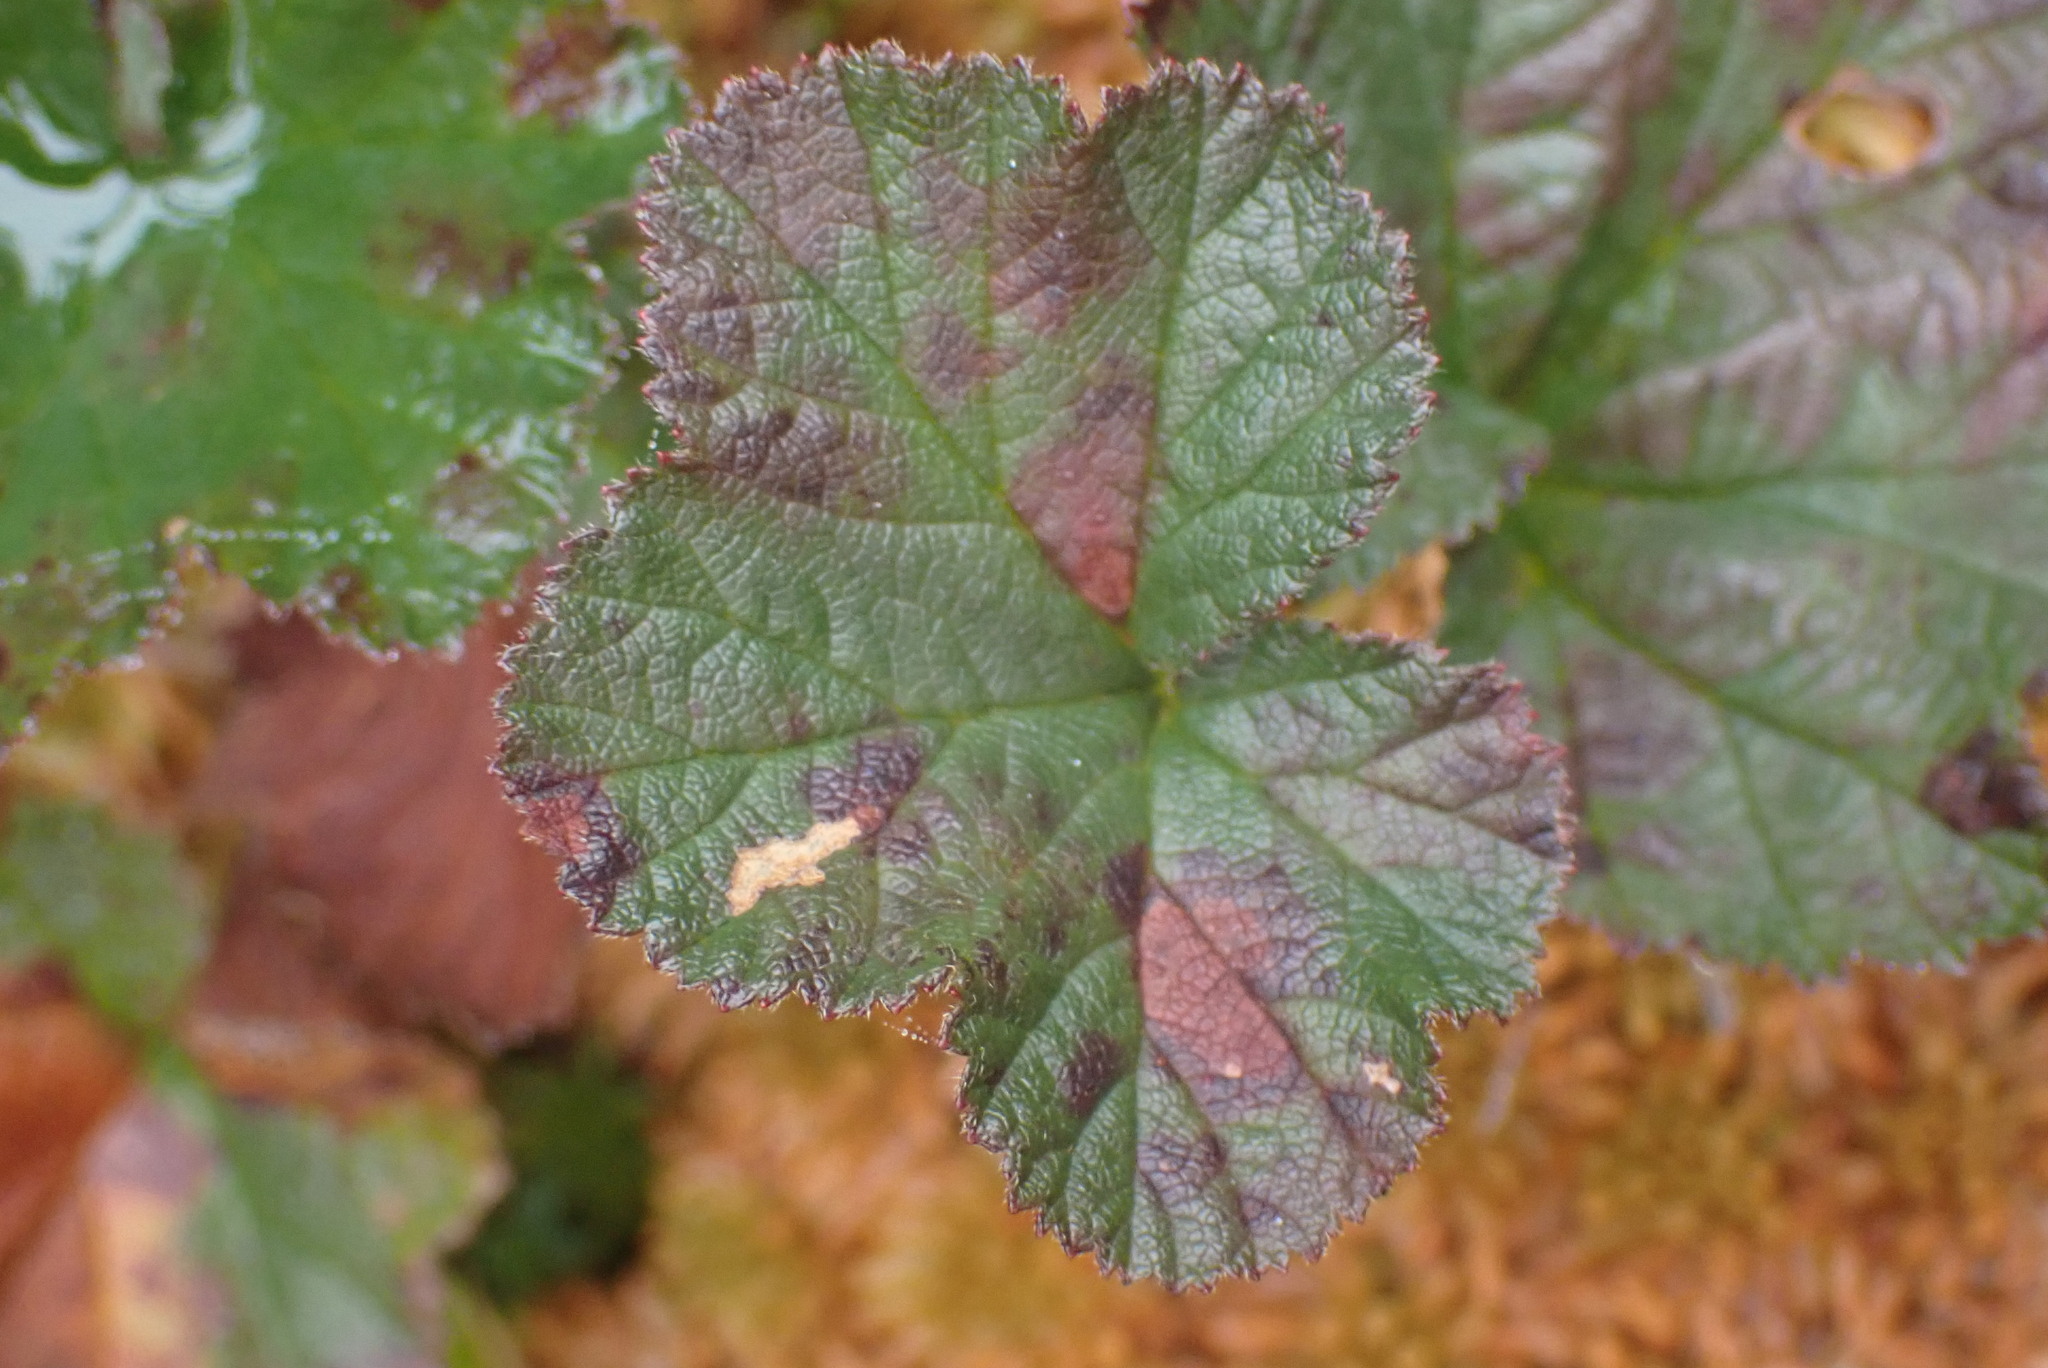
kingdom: Plantae
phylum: Tracheophyta
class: Magnoliopsida
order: Rosales
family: Rosaceae
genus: Rubus
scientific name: Rubus chamaemorus
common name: Cloudberry
